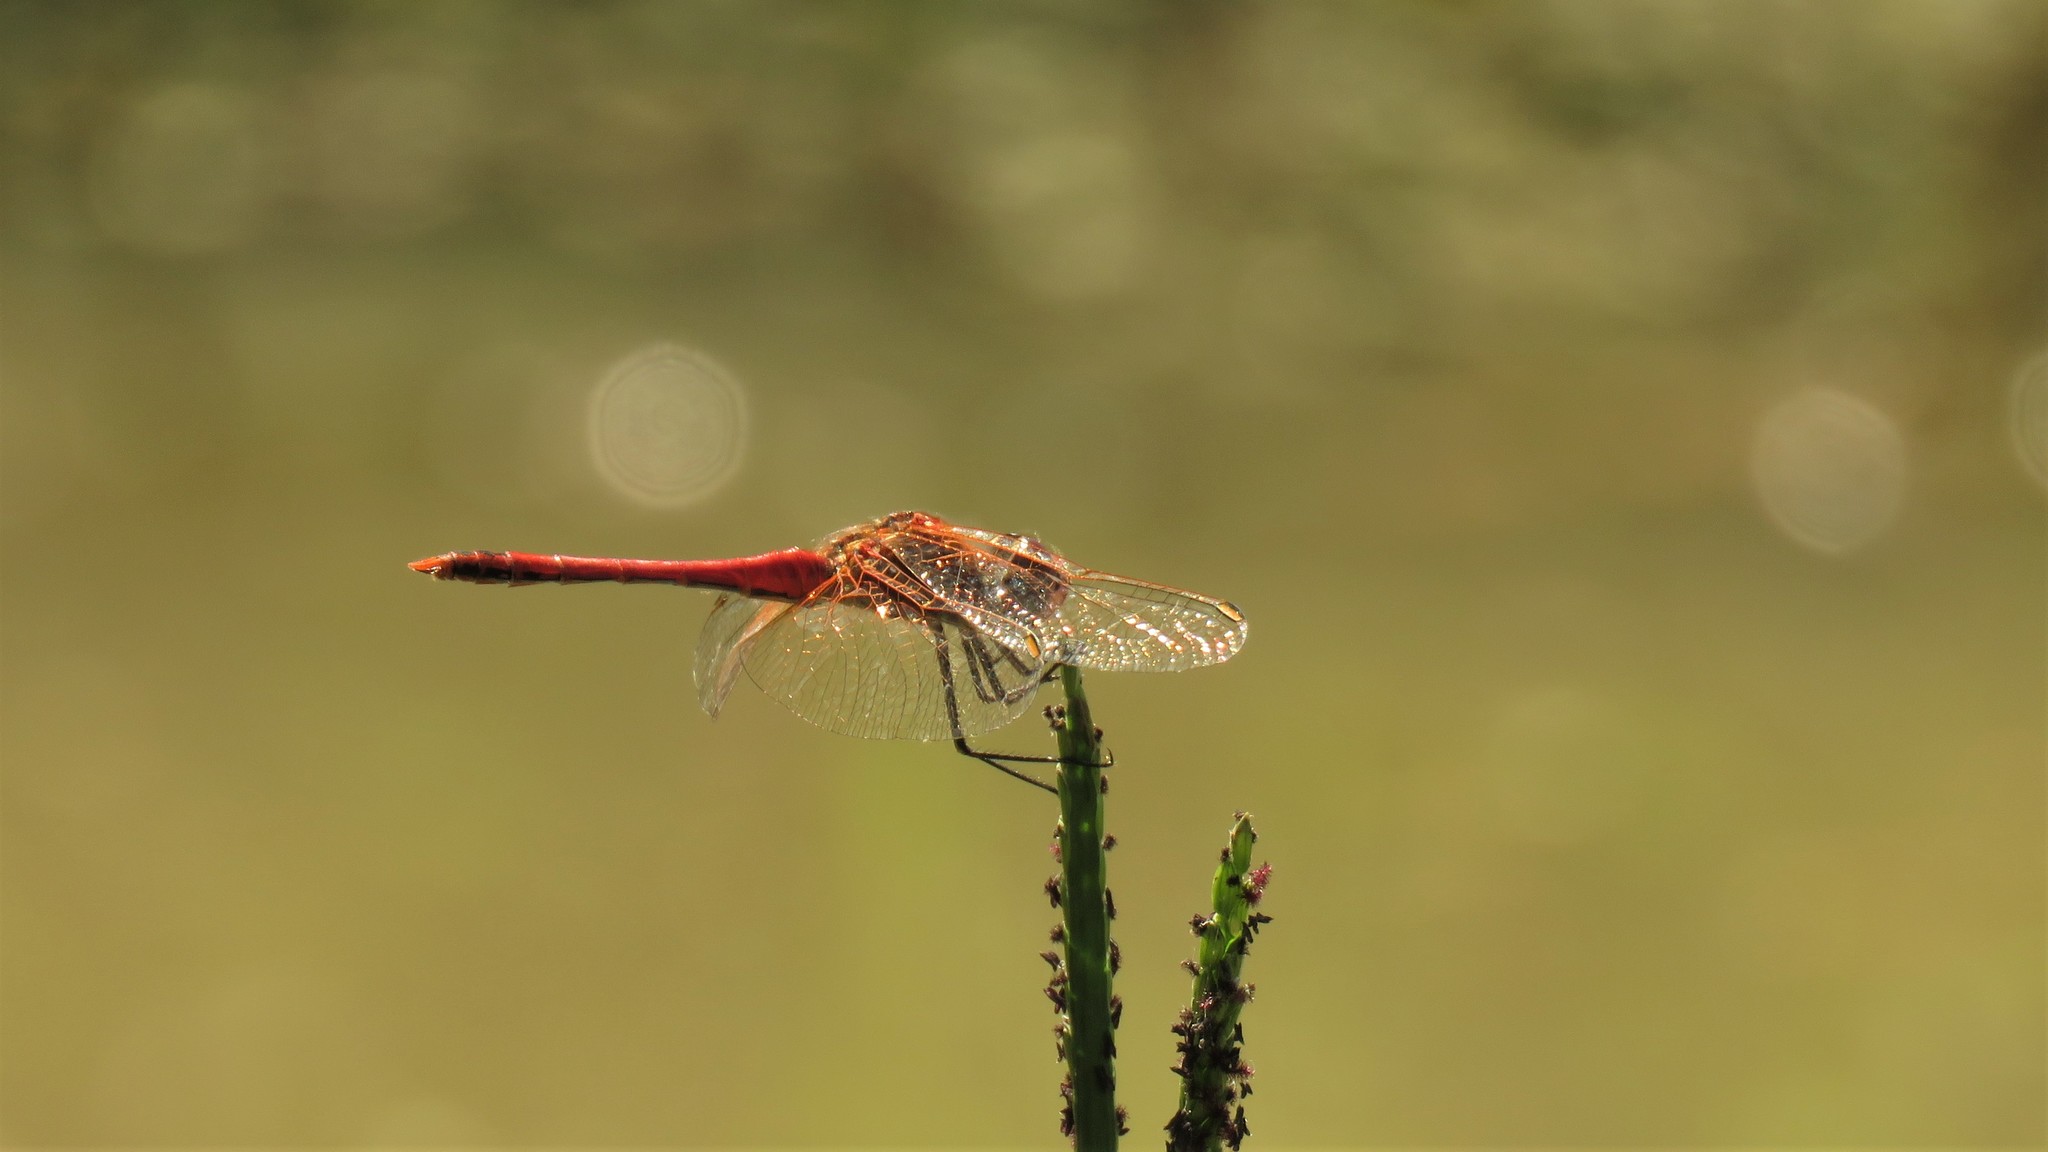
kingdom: Animalia
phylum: Arthropoda
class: Insecta
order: Odonata
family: Libellulidae
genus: Sympetrum
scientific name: Sympetrum fonscolombii
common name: Red-veined darter
